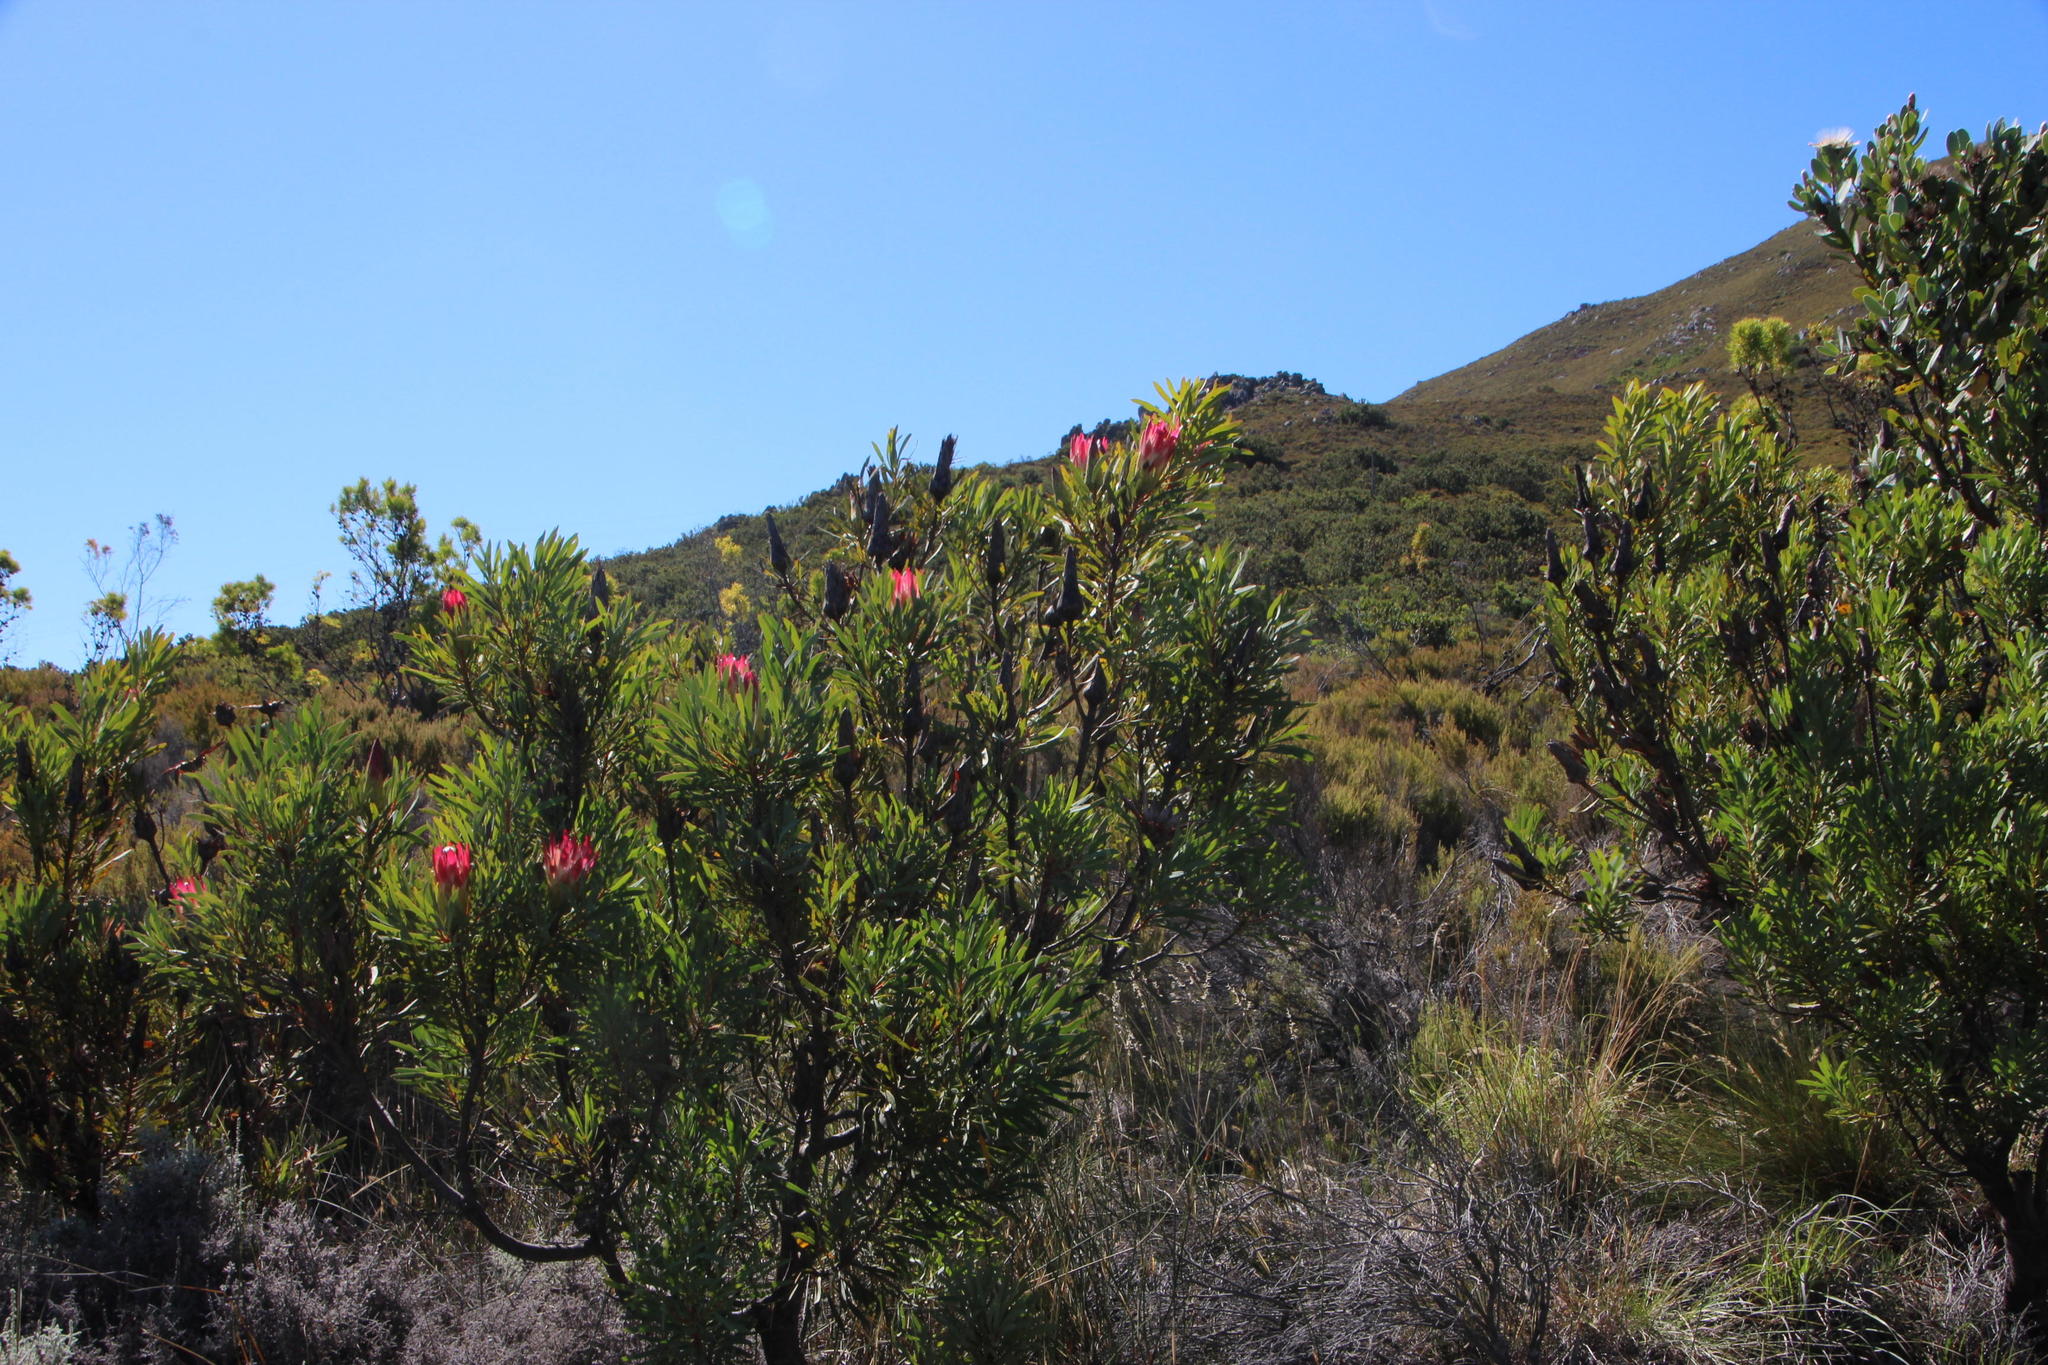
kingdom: Plantae
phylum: Tracheophyta
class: Magnoliopsida
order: Proteales
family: Proteaceae
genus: Protea
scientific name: Protea repens
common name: Sugarbush
